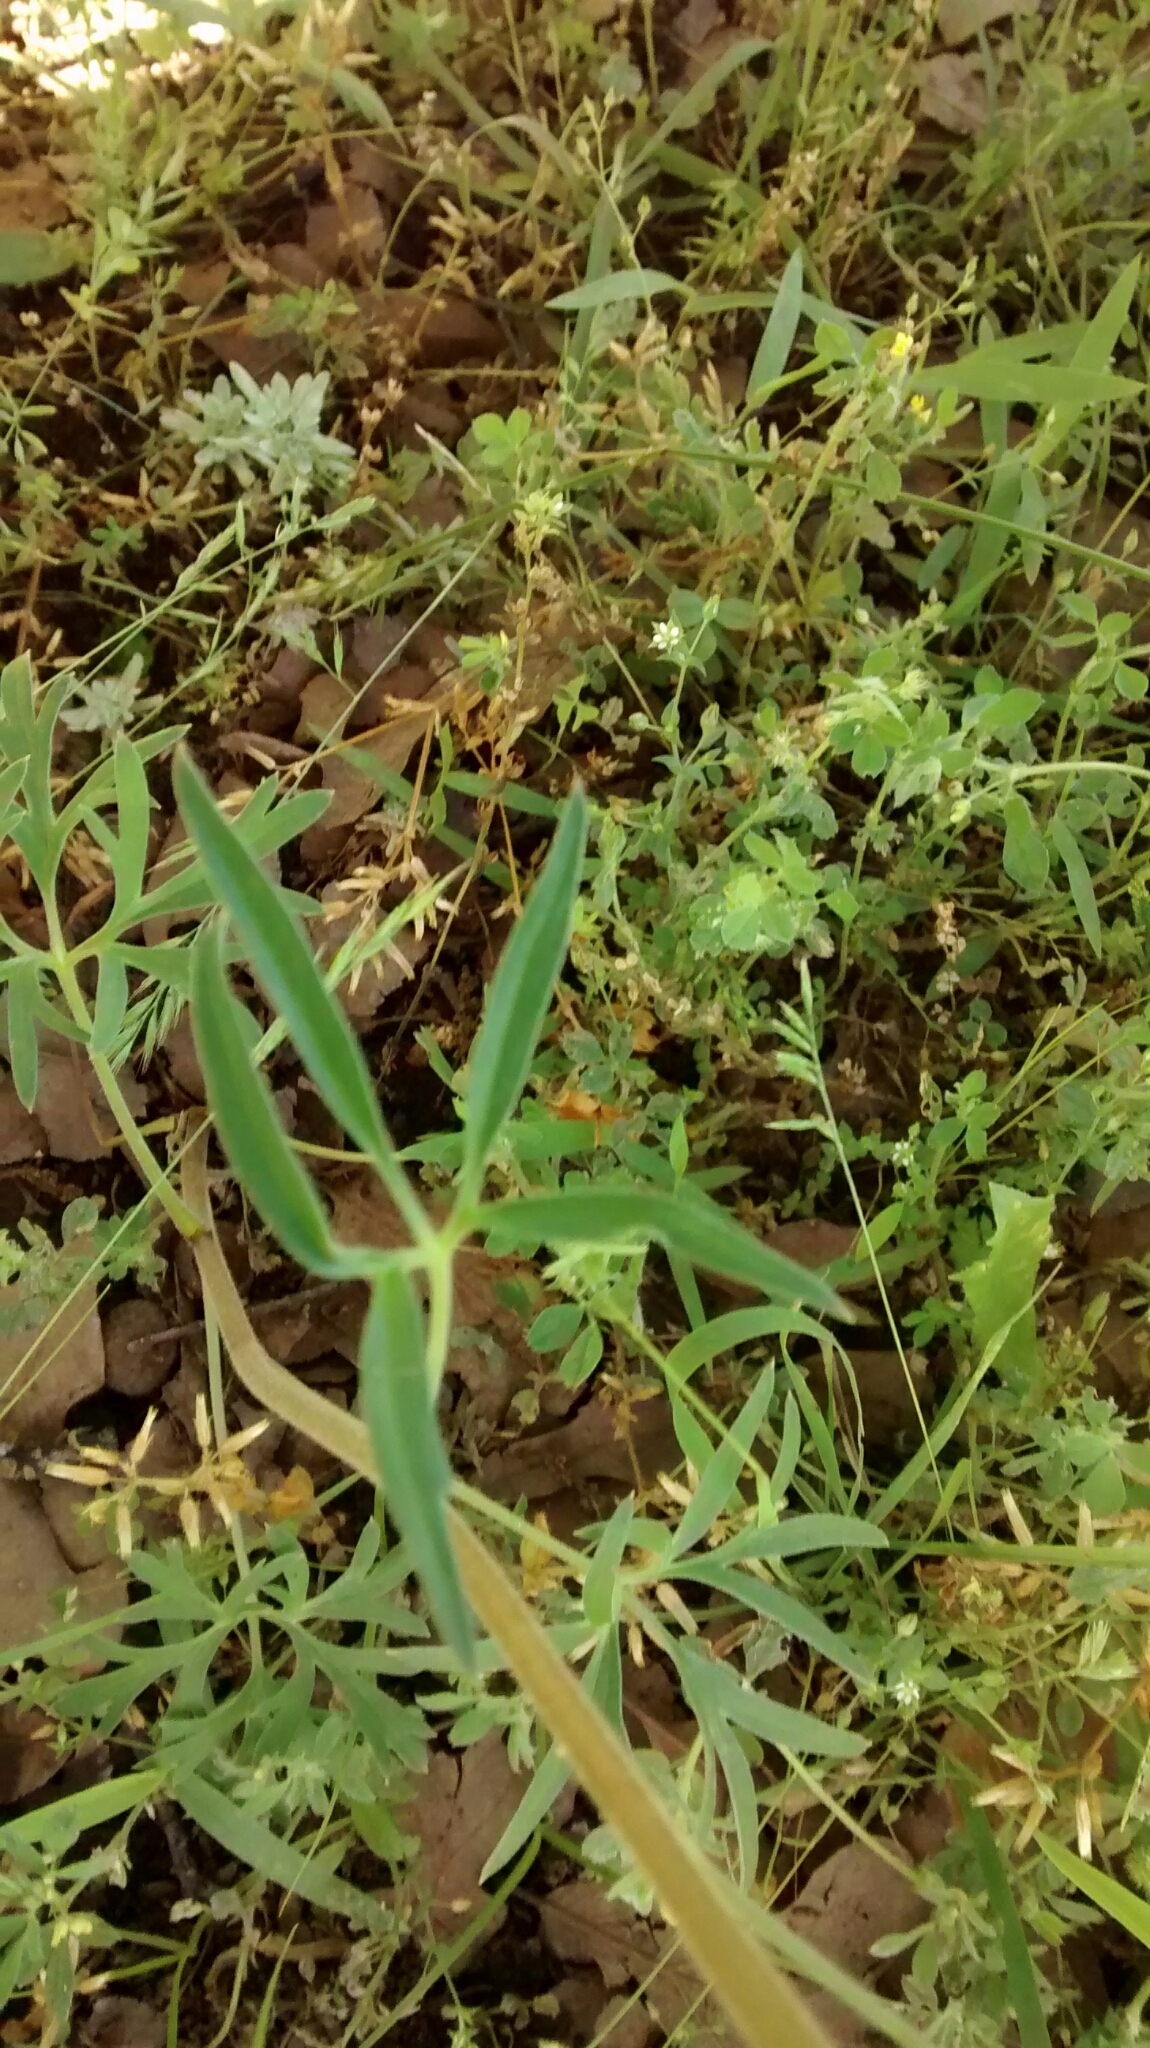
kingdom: Plantae
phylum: Tracheophyta
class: Magnoliopsida
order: Ranunculales
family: Ranunculaceae
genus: Delphinium
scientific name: Delphinium carolinianum
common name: Carolina larkspur
